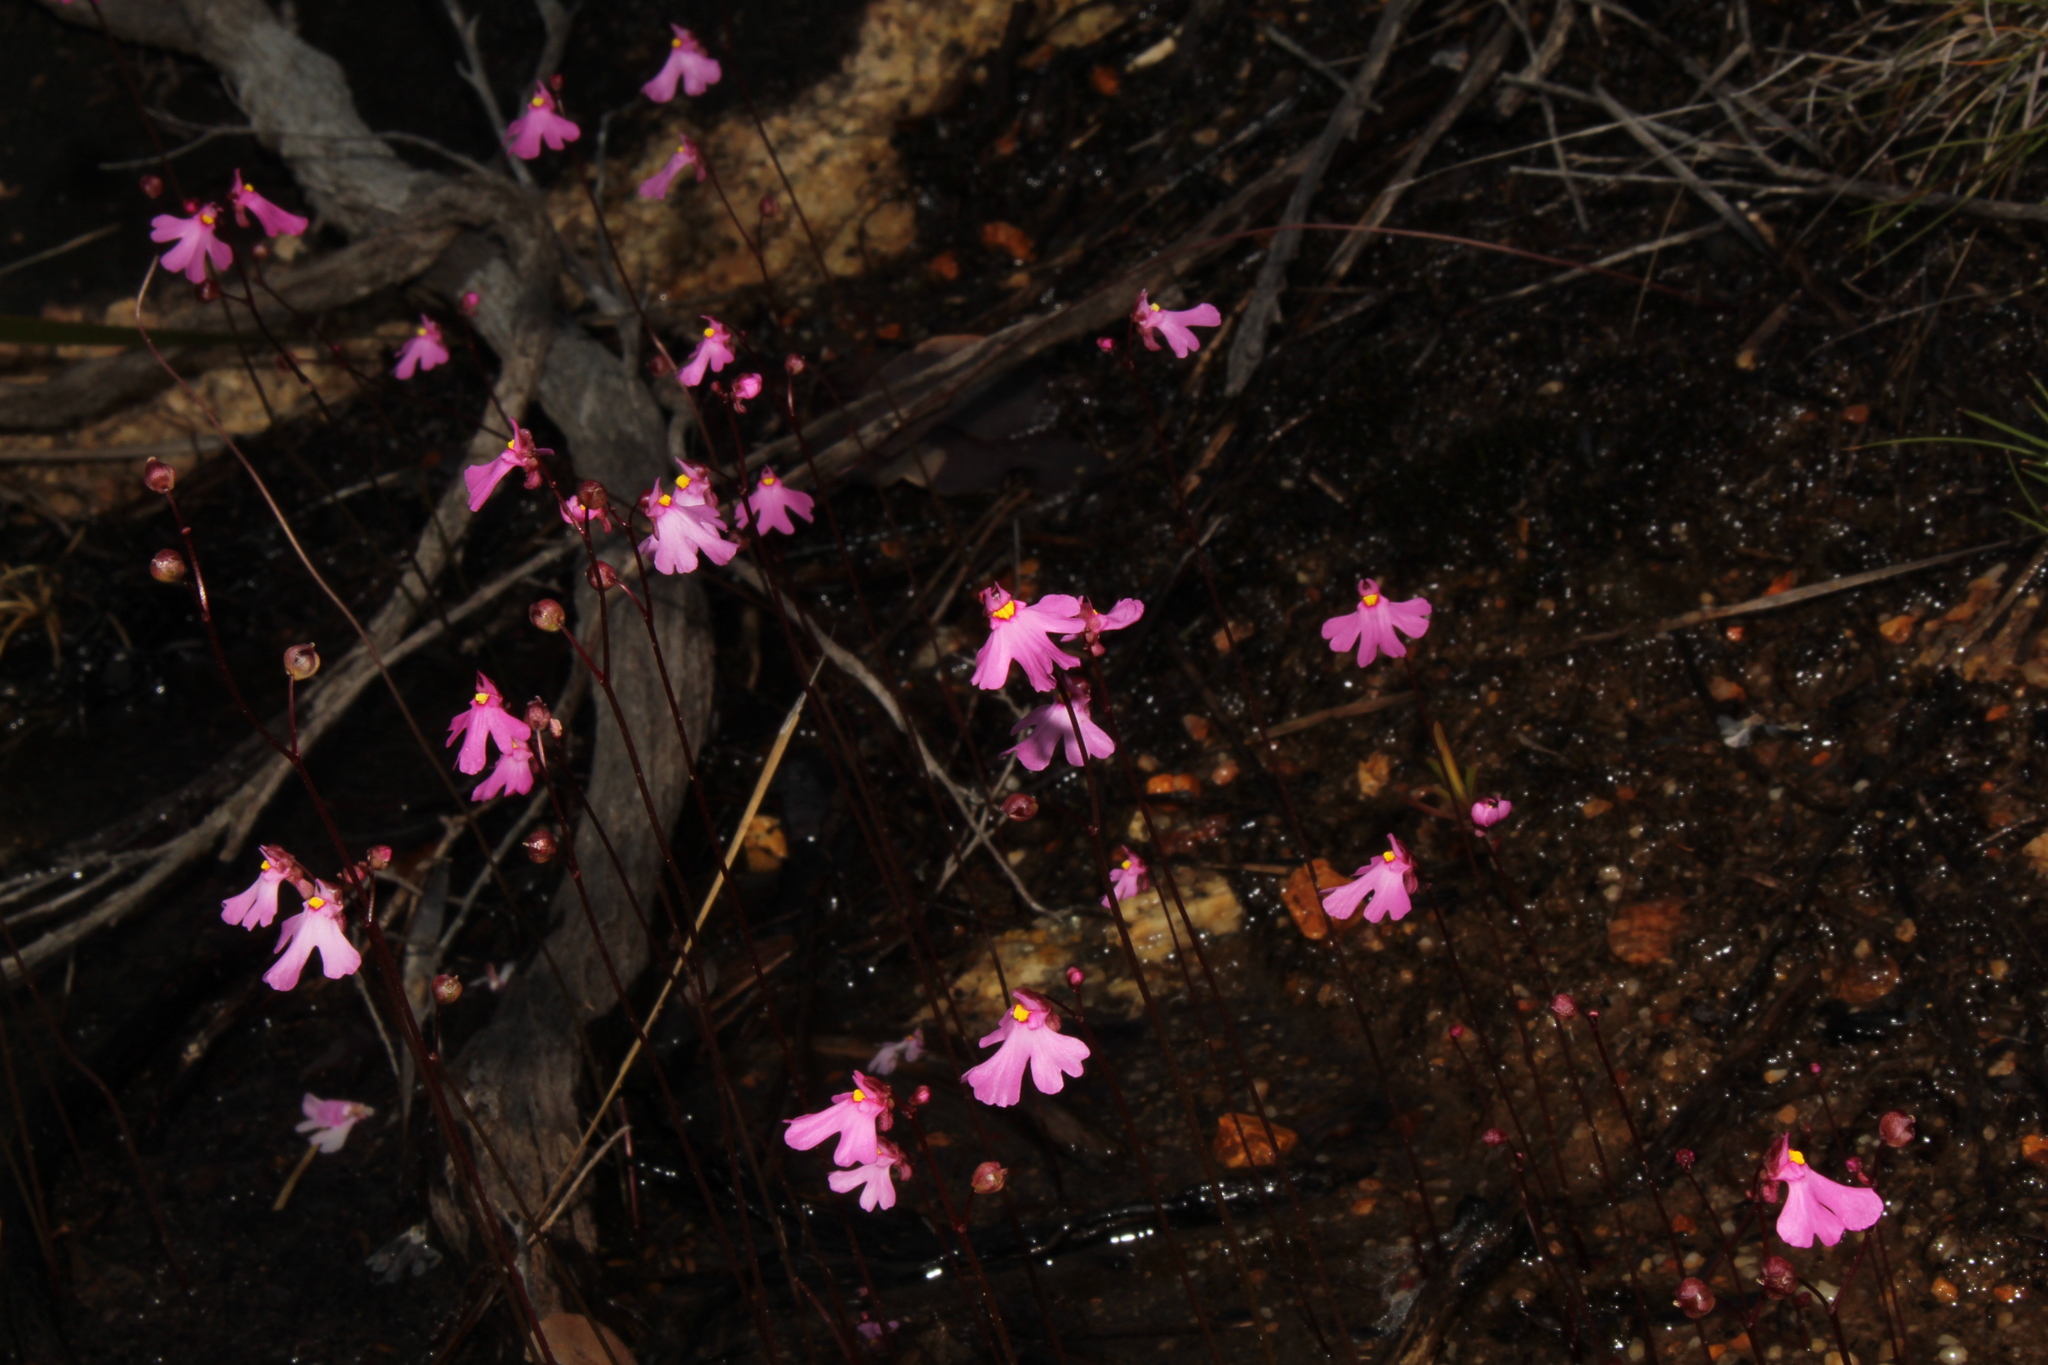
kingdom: Plantae
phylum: Tracheophyta
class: Magnoliopsida
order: Lamiales
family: Lentibulariaceae
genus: Utricularia
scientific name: Utricularia multifida
